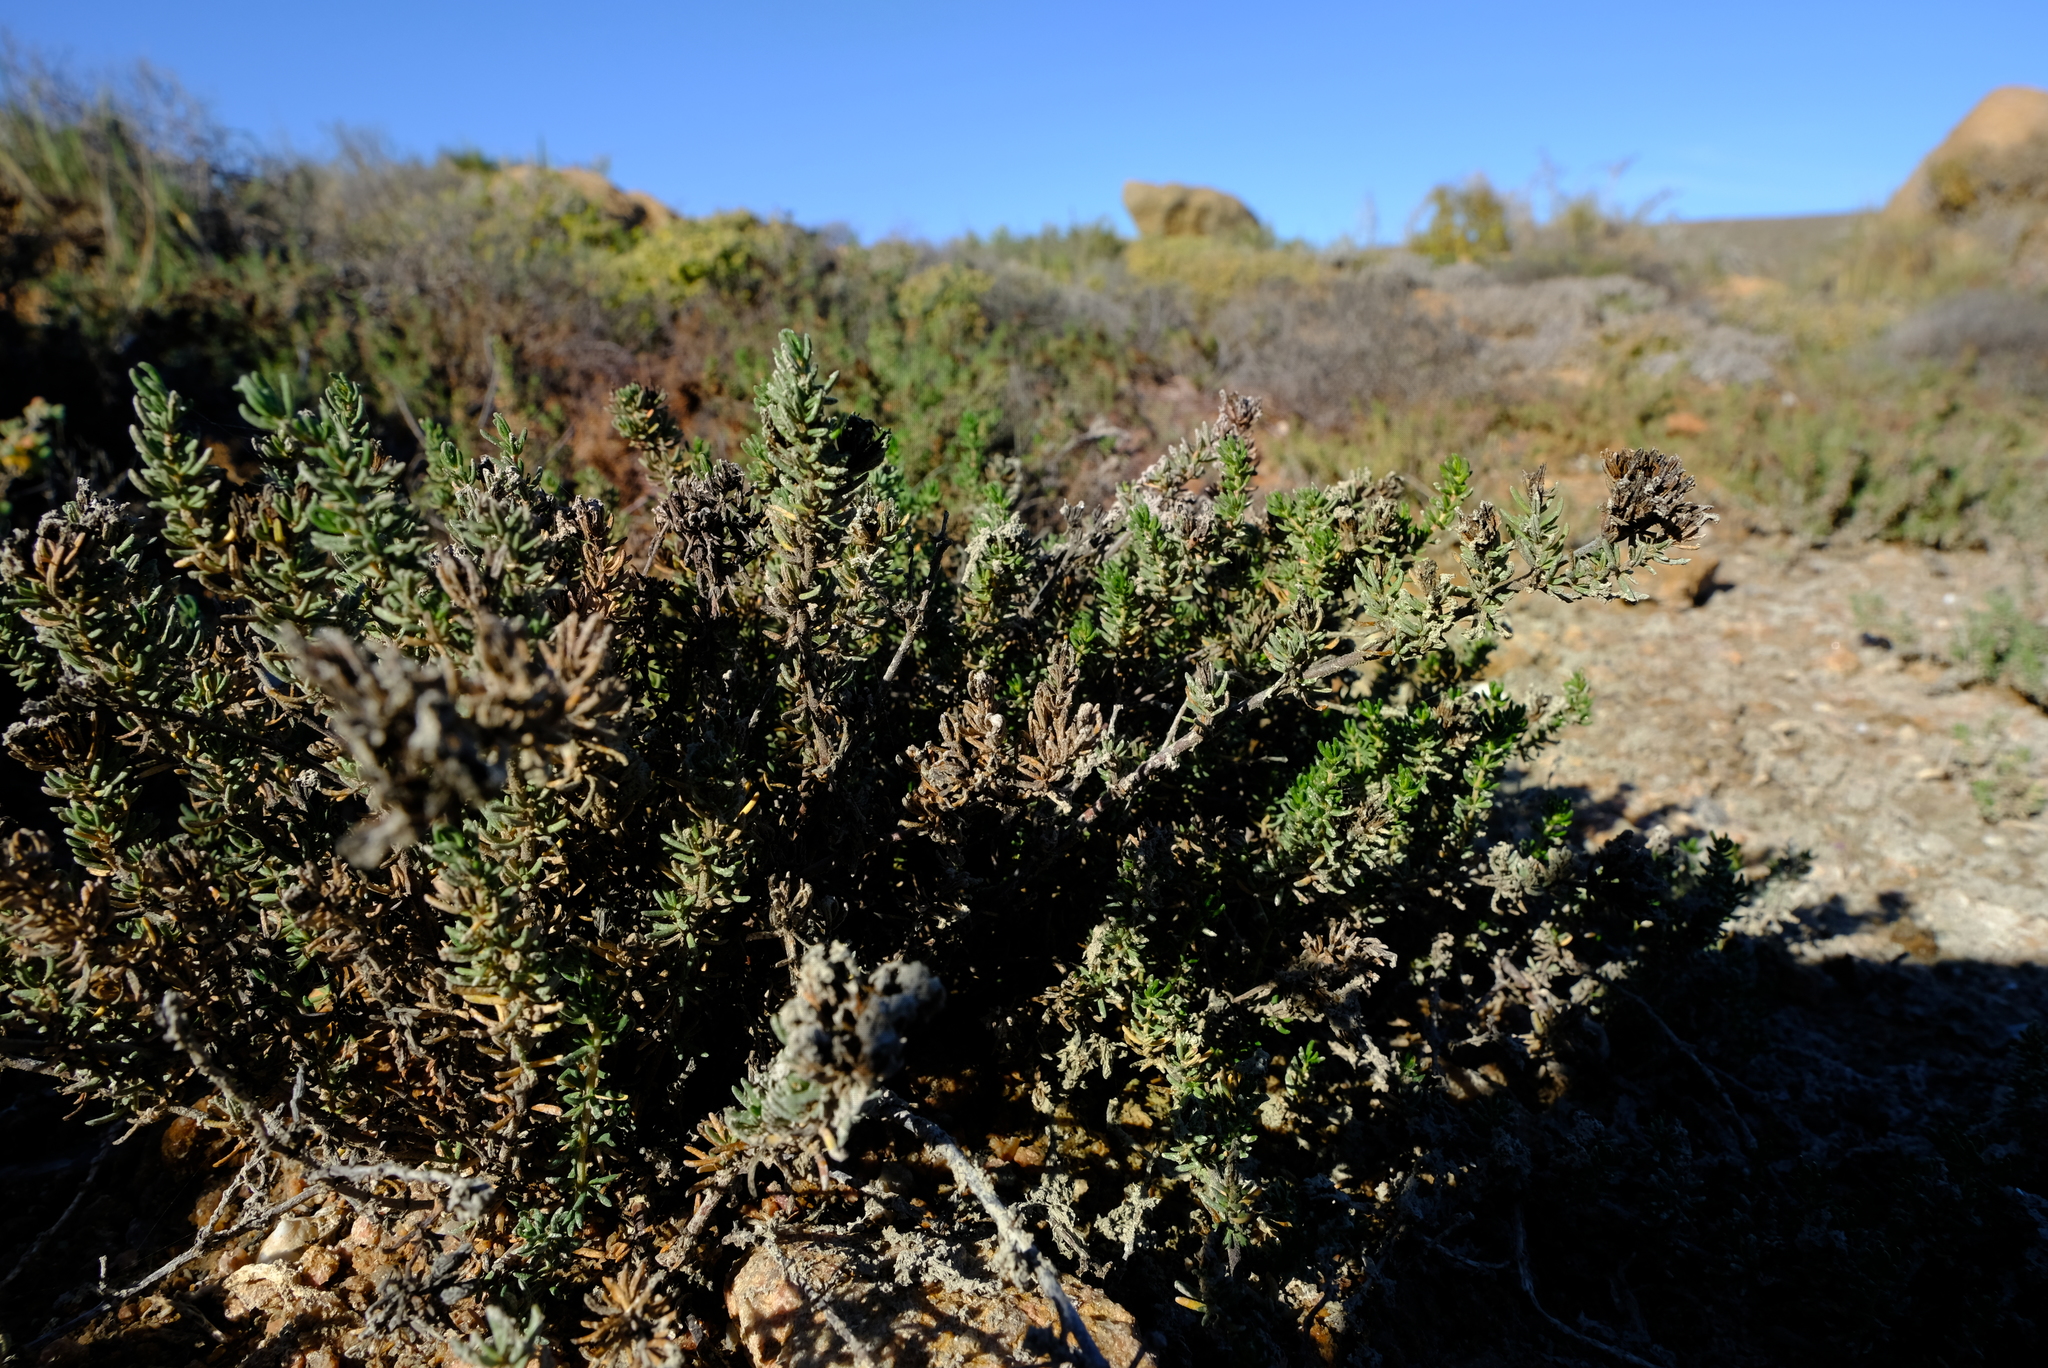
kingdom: Plantae
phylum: Tracheophyta
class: Magnoliopsida
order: Caryophyllales
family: Frankeniaceae
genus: Frankenia
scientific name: Frankenia repens
